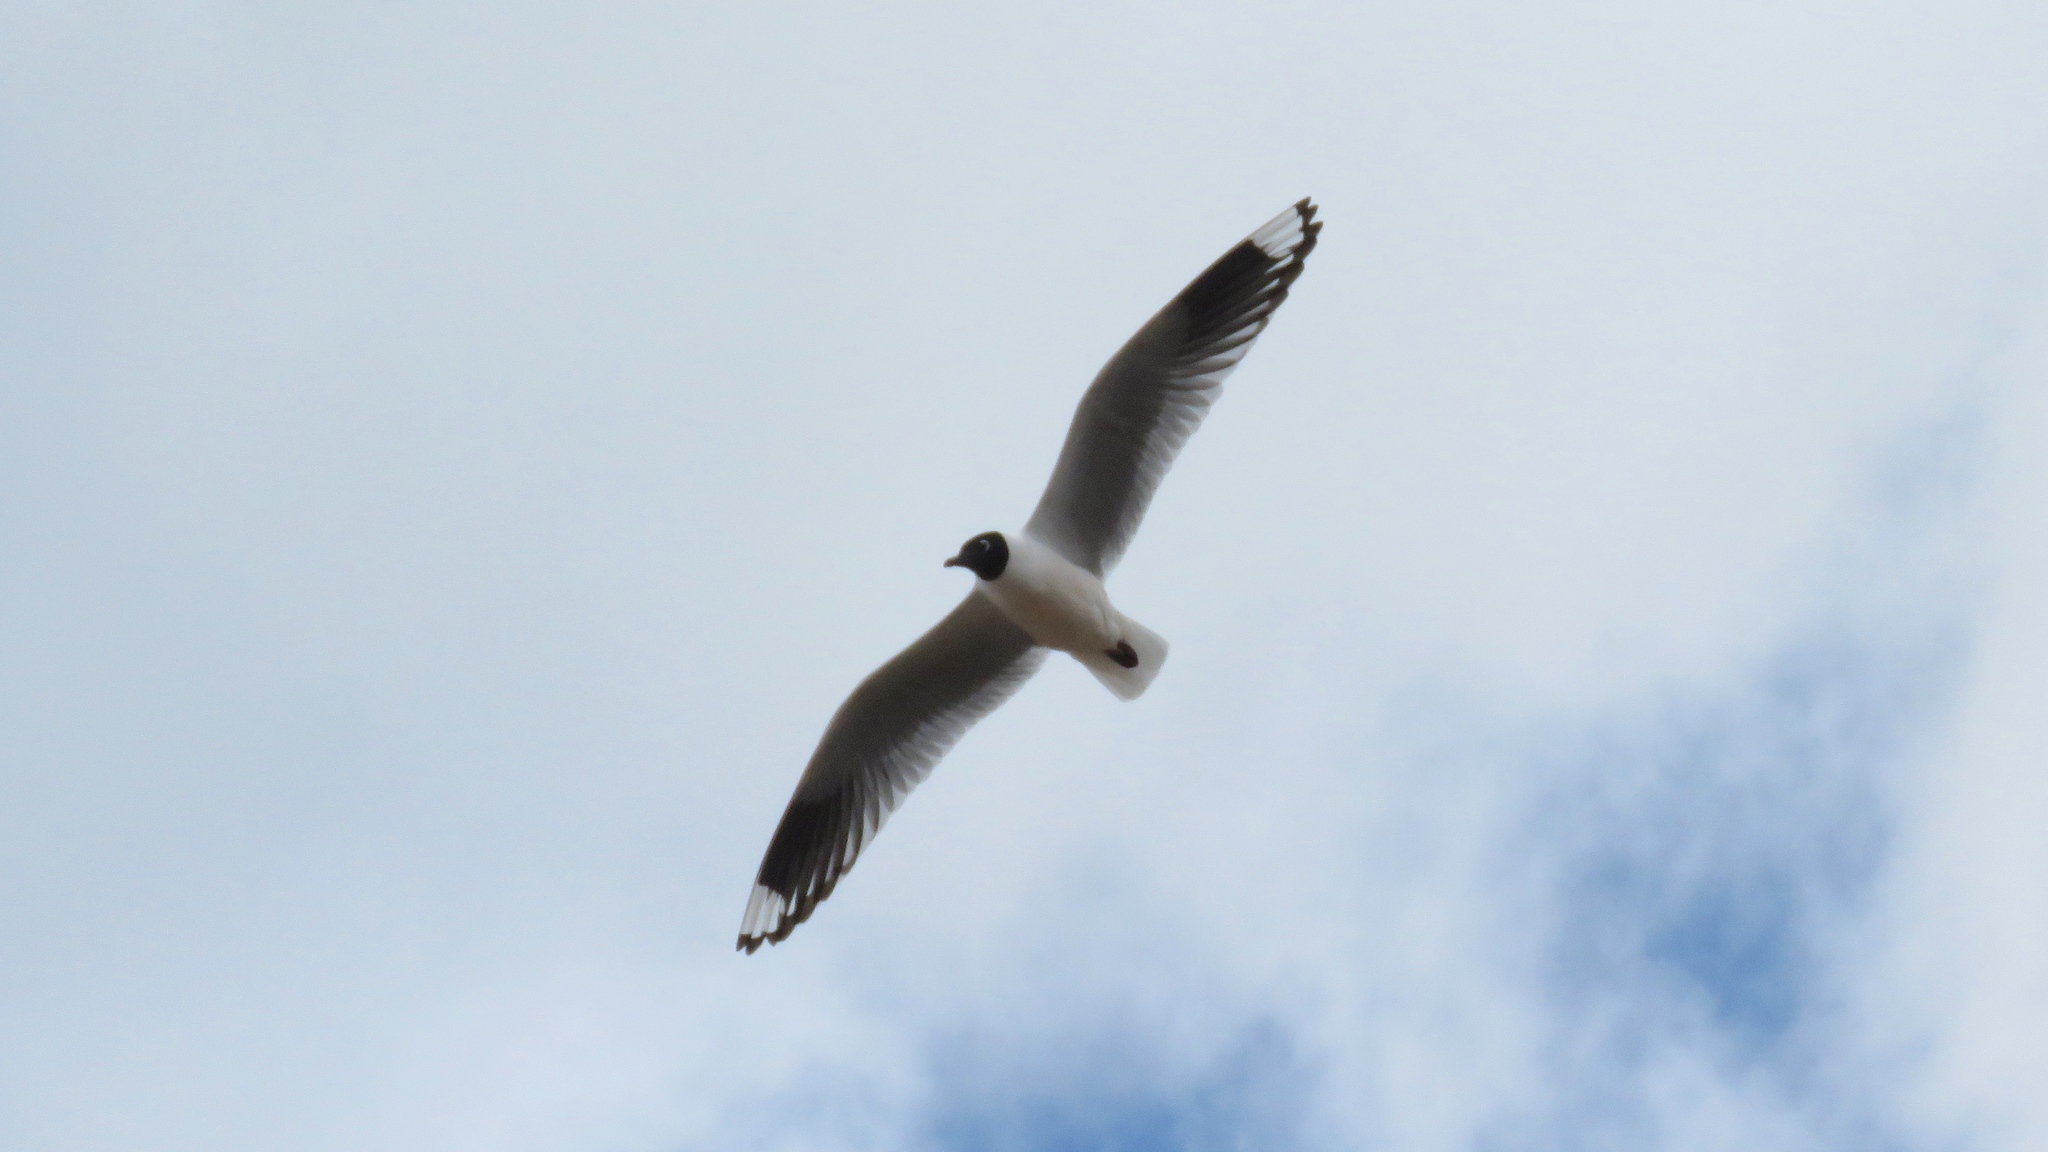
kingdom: Animalia
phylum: Chordata
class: Aves
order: Charadriiformes
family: Laridae
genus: Chroicocephalus
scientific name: Chroicocephalus serranus
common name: Andean gull
